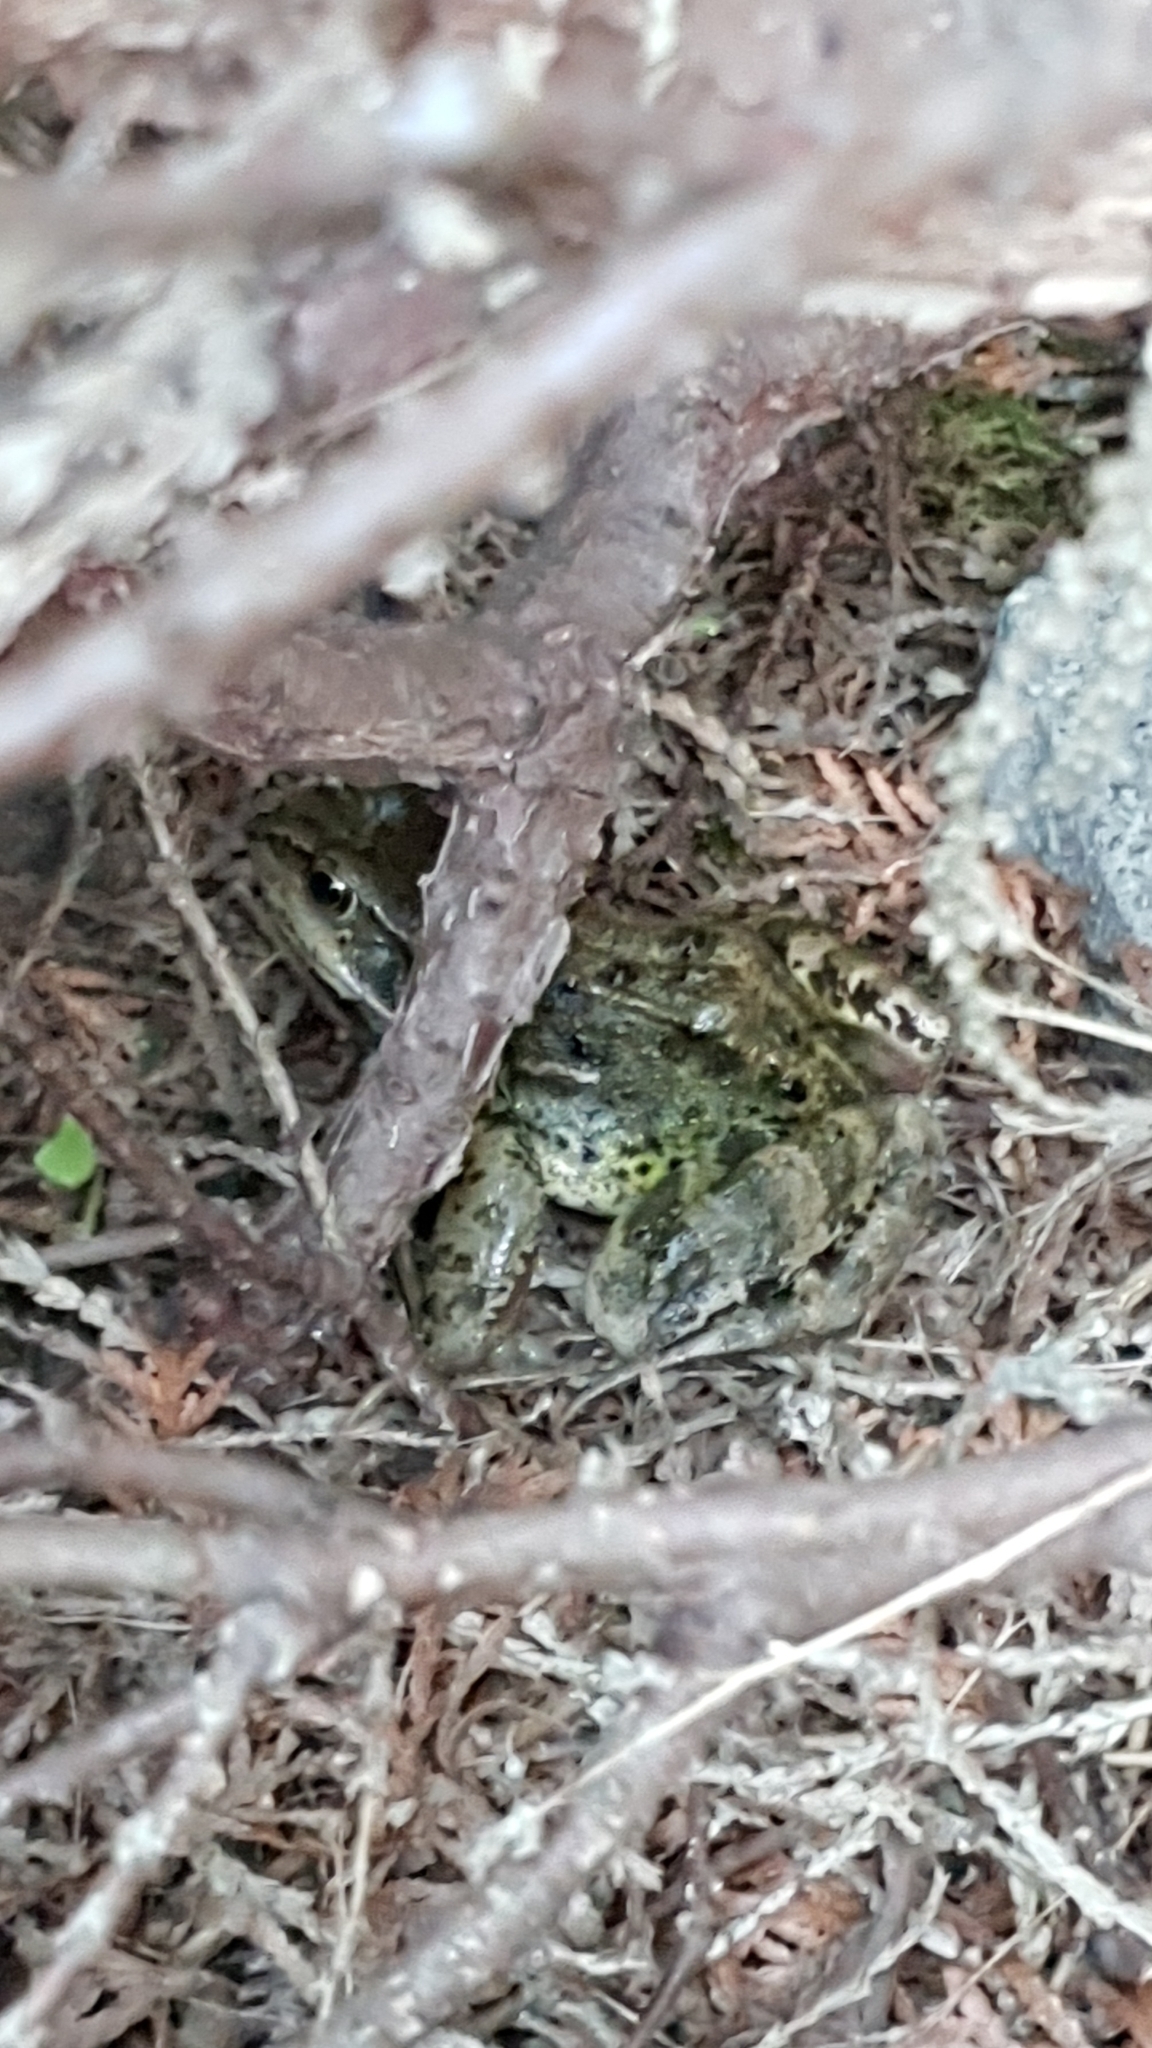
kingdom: Animalia
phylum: Chordata
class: Amphibia
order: Anura
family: Ranidae
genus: Rana
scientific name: Rana temporaria
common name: Common frog
